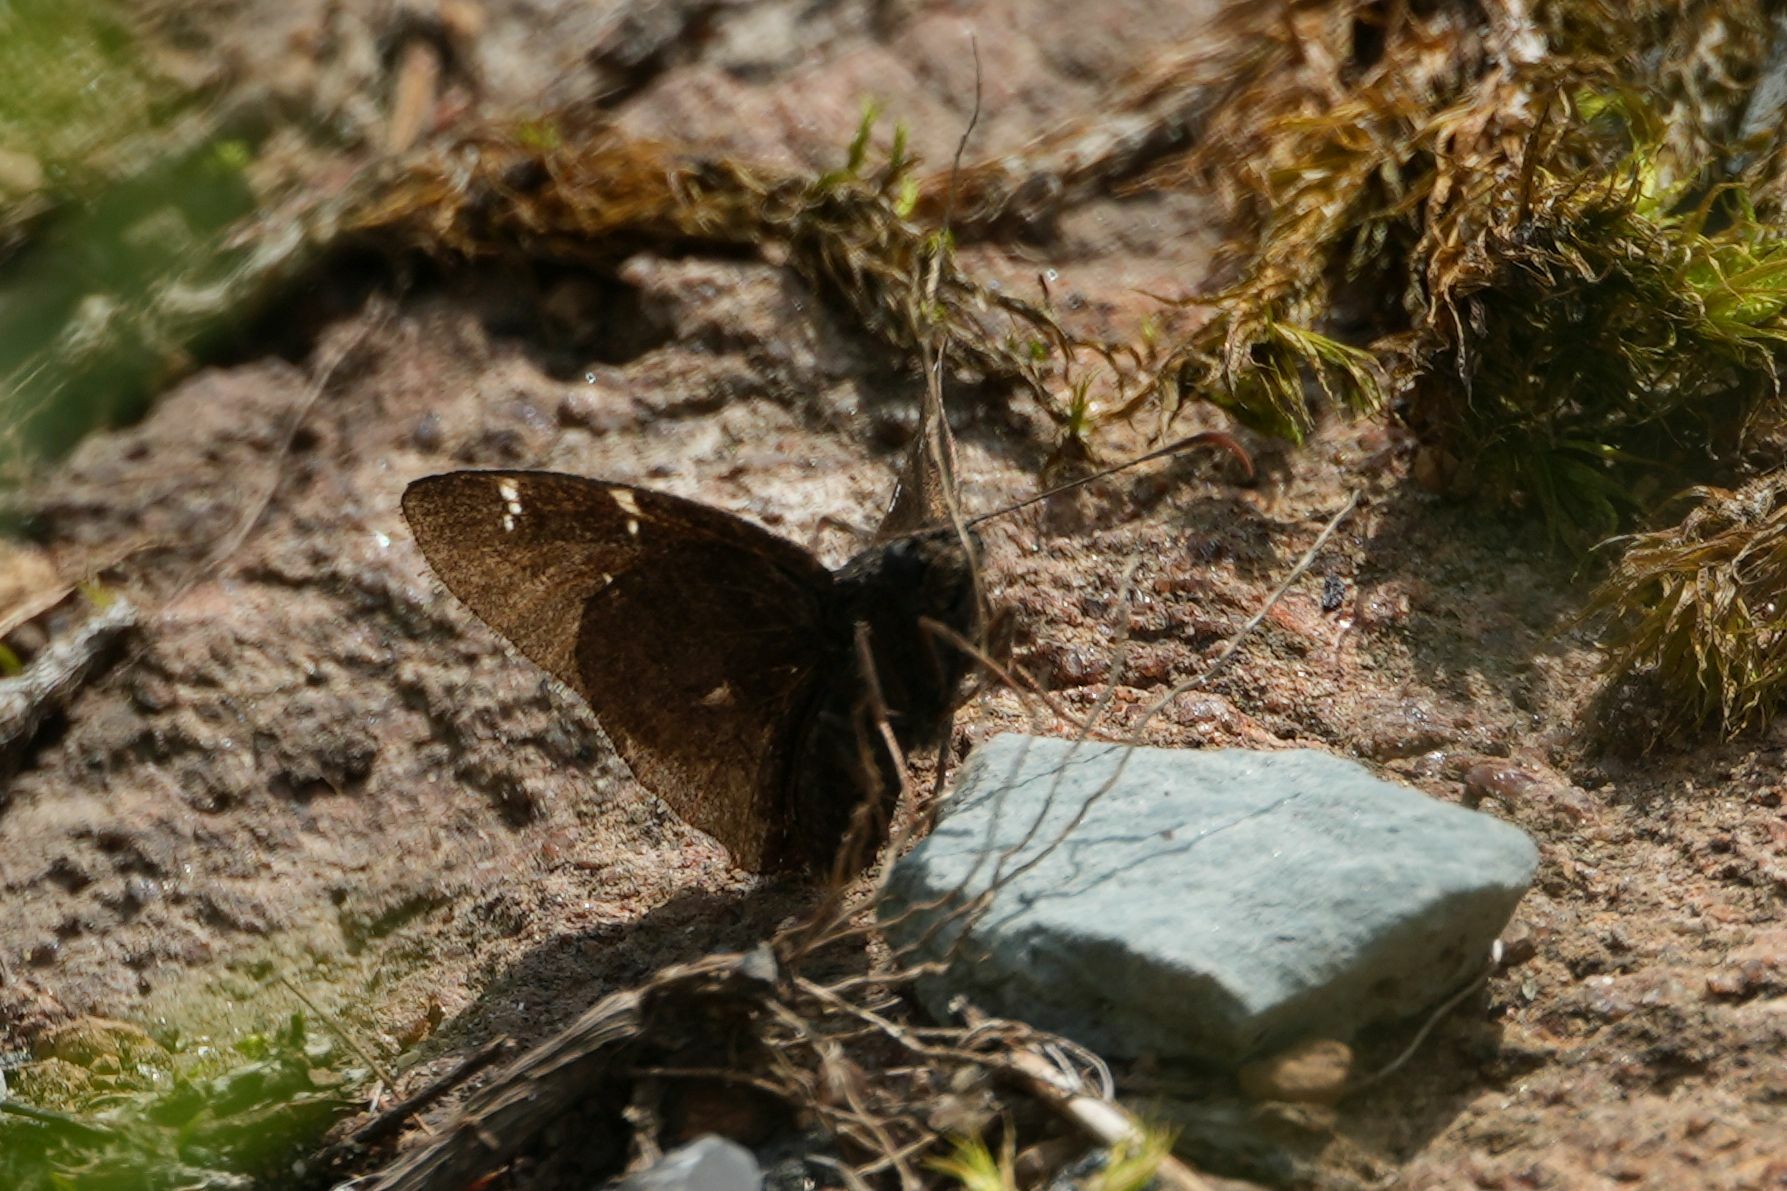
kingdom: Animalia
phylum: Arthropoda
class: Insecta
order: Lepidoptera
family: Hesperiidae
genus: Thorybes
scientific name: Thorybes pylades
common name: Northern cloudywing
